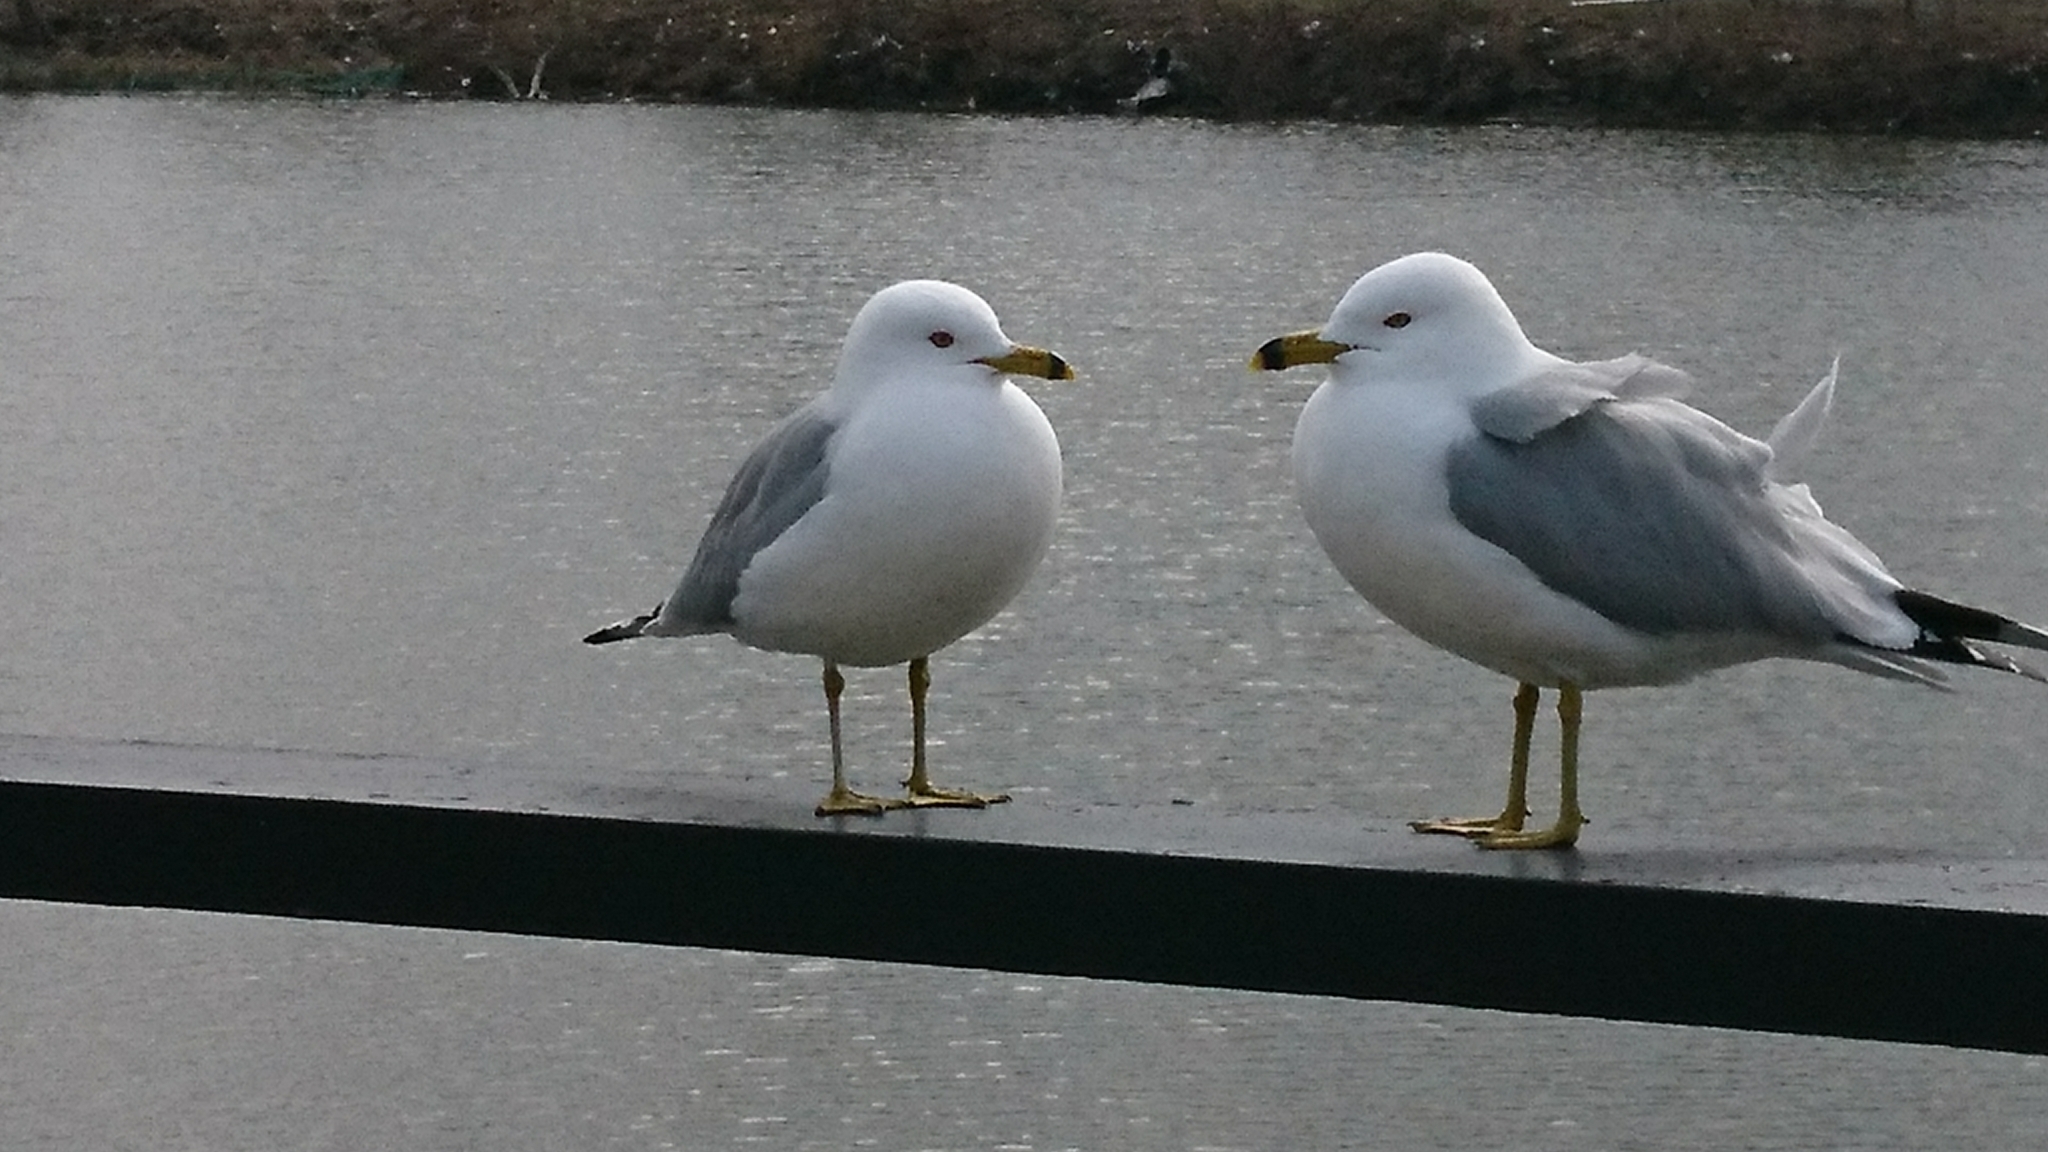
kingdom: Animalia
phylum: Chordata
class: Aves
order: Charadriiformes
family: Laridae
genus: Larus
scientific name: Larus delawarensis
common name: Ring-billed gull
